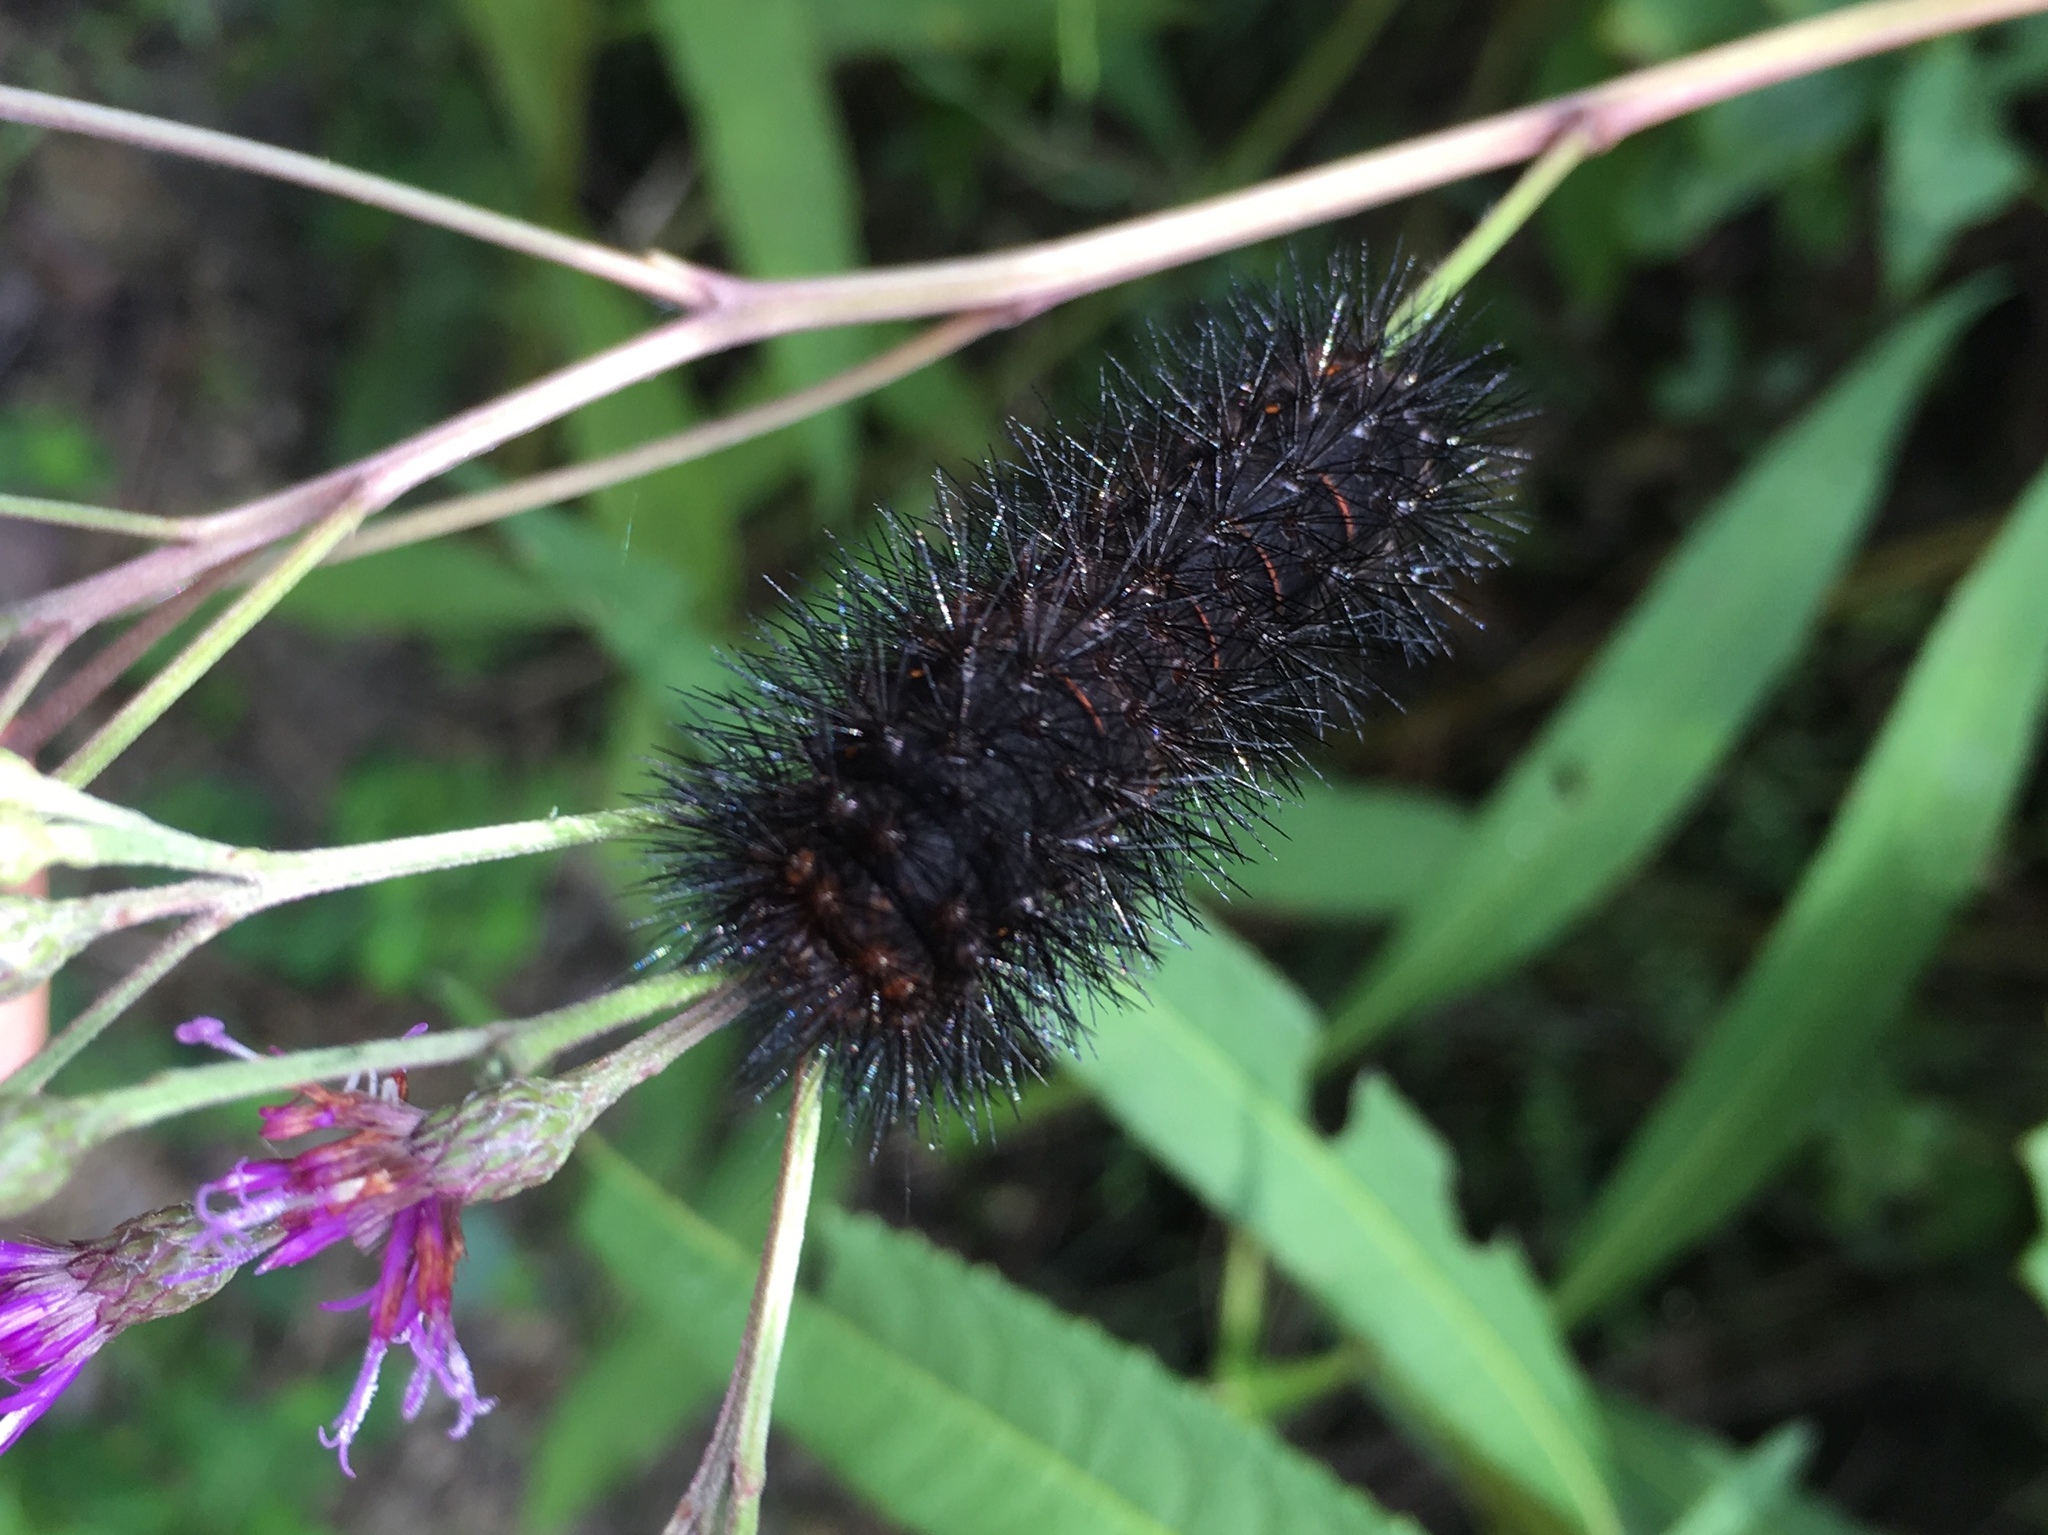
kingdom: Animalia
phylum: Arthropoda
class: Insecta
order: Lepidoptera
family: Erebidae
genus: Hypercompe
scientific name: Hypercompe scribonia
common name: Giant leopard moth
